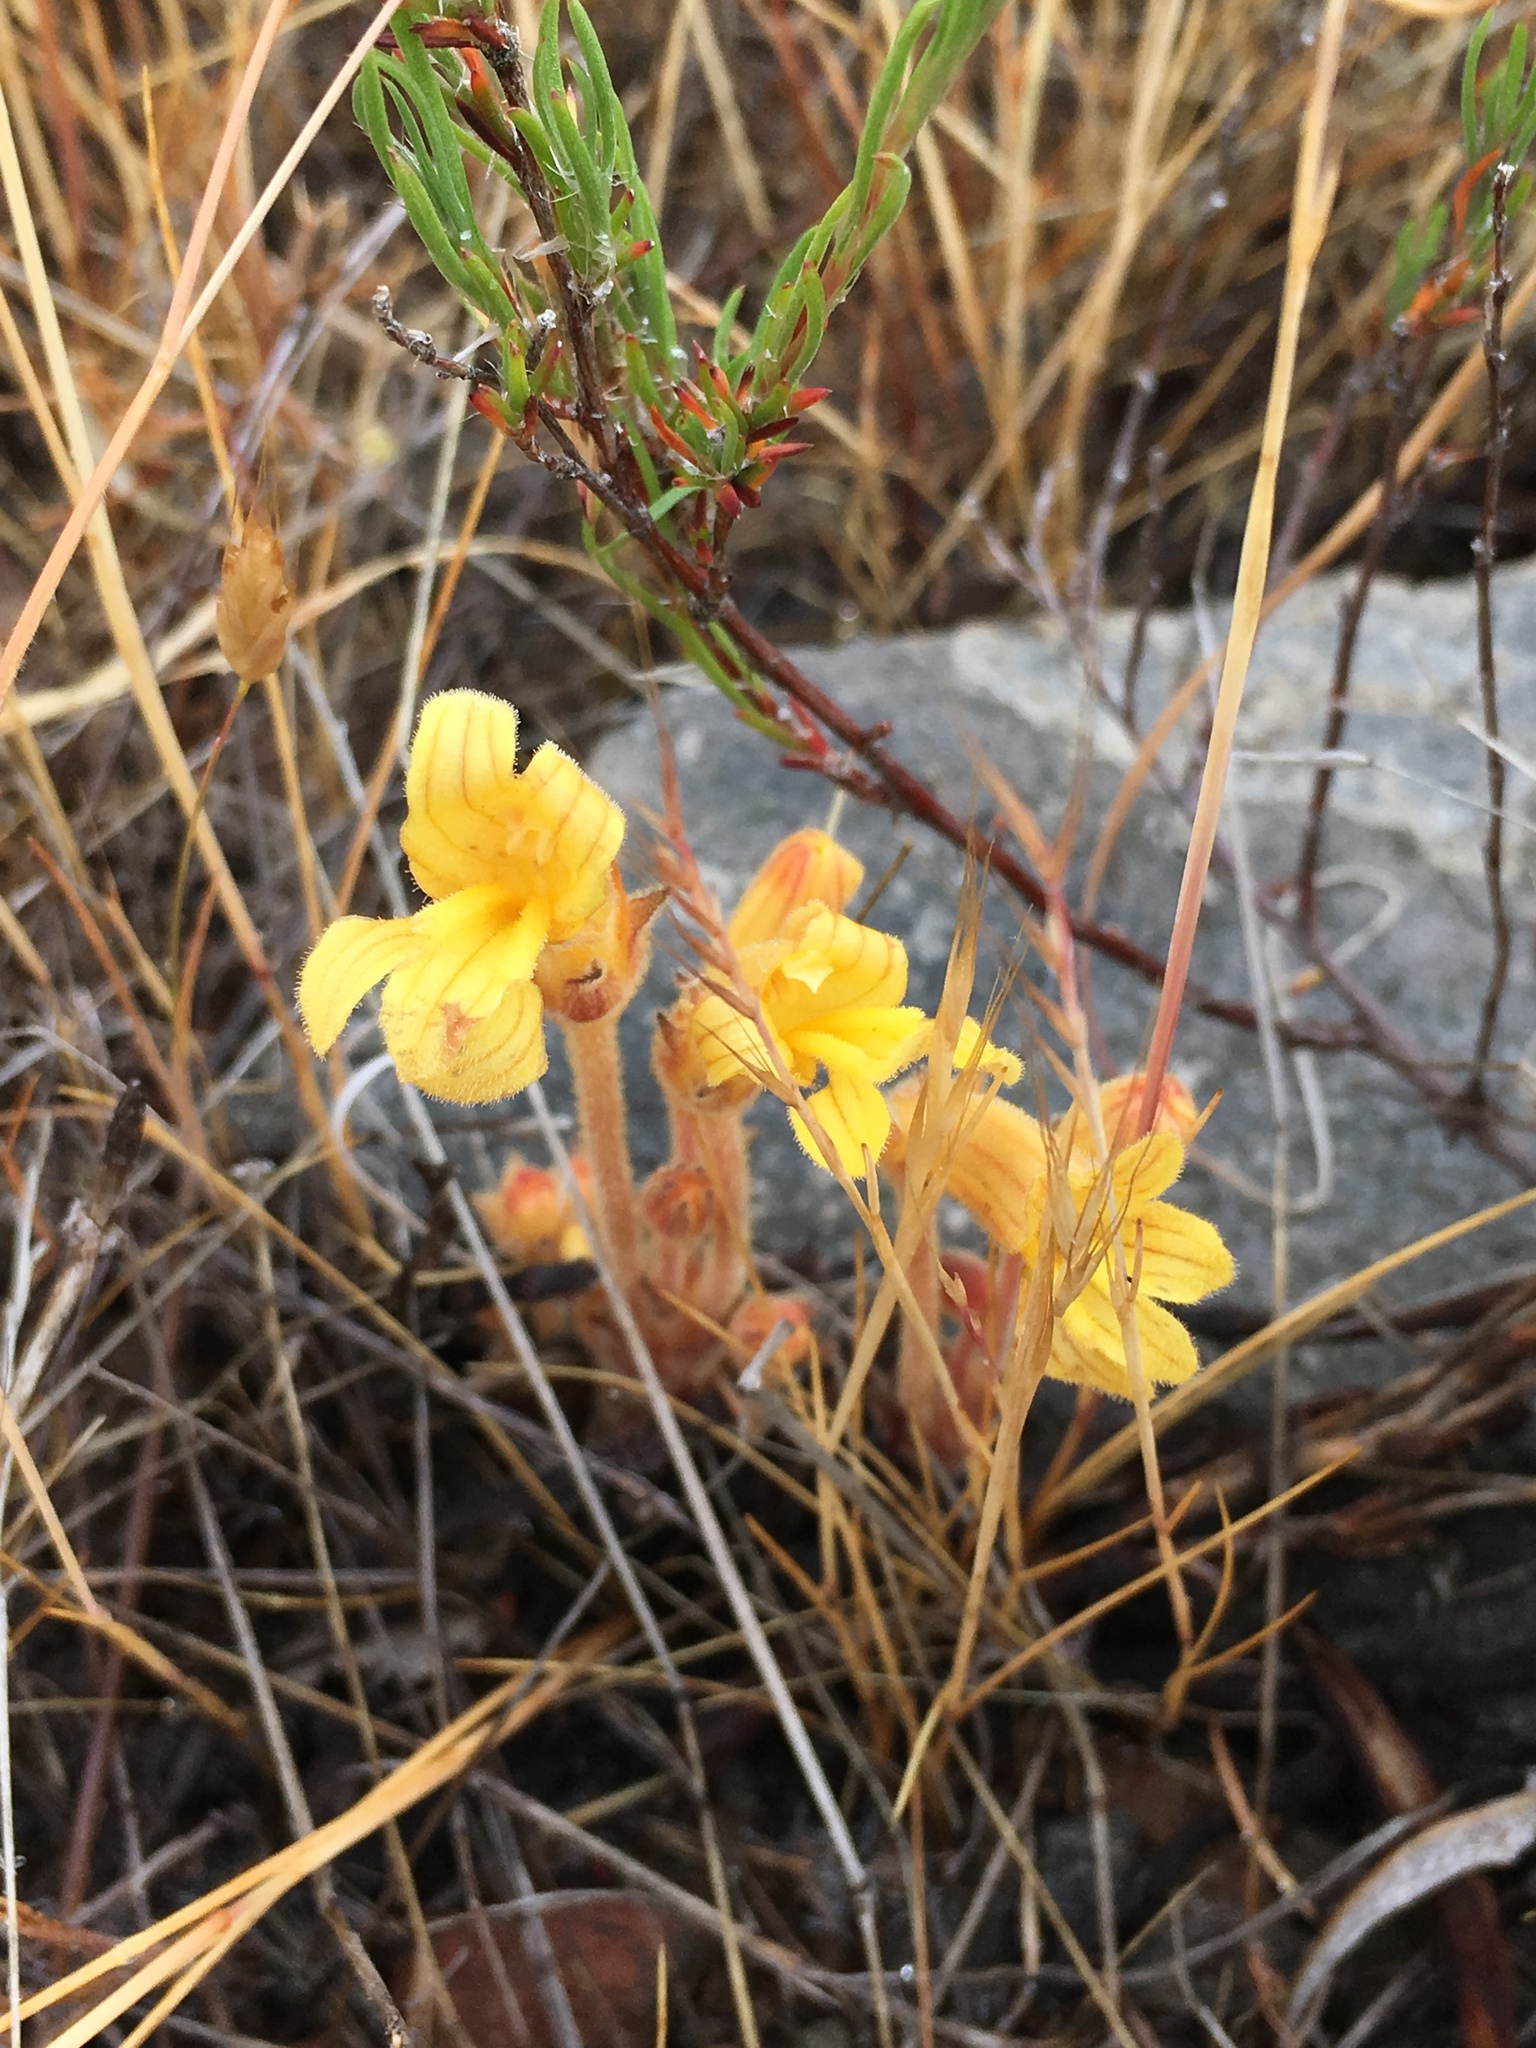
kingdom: Plantae
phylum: Tracheophyta
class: Magnoliopsida
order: Lamiales
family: Orobanchaceae
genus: Aphyllon
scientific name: Aphyllon franciscanum
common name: San francisco broomrape
